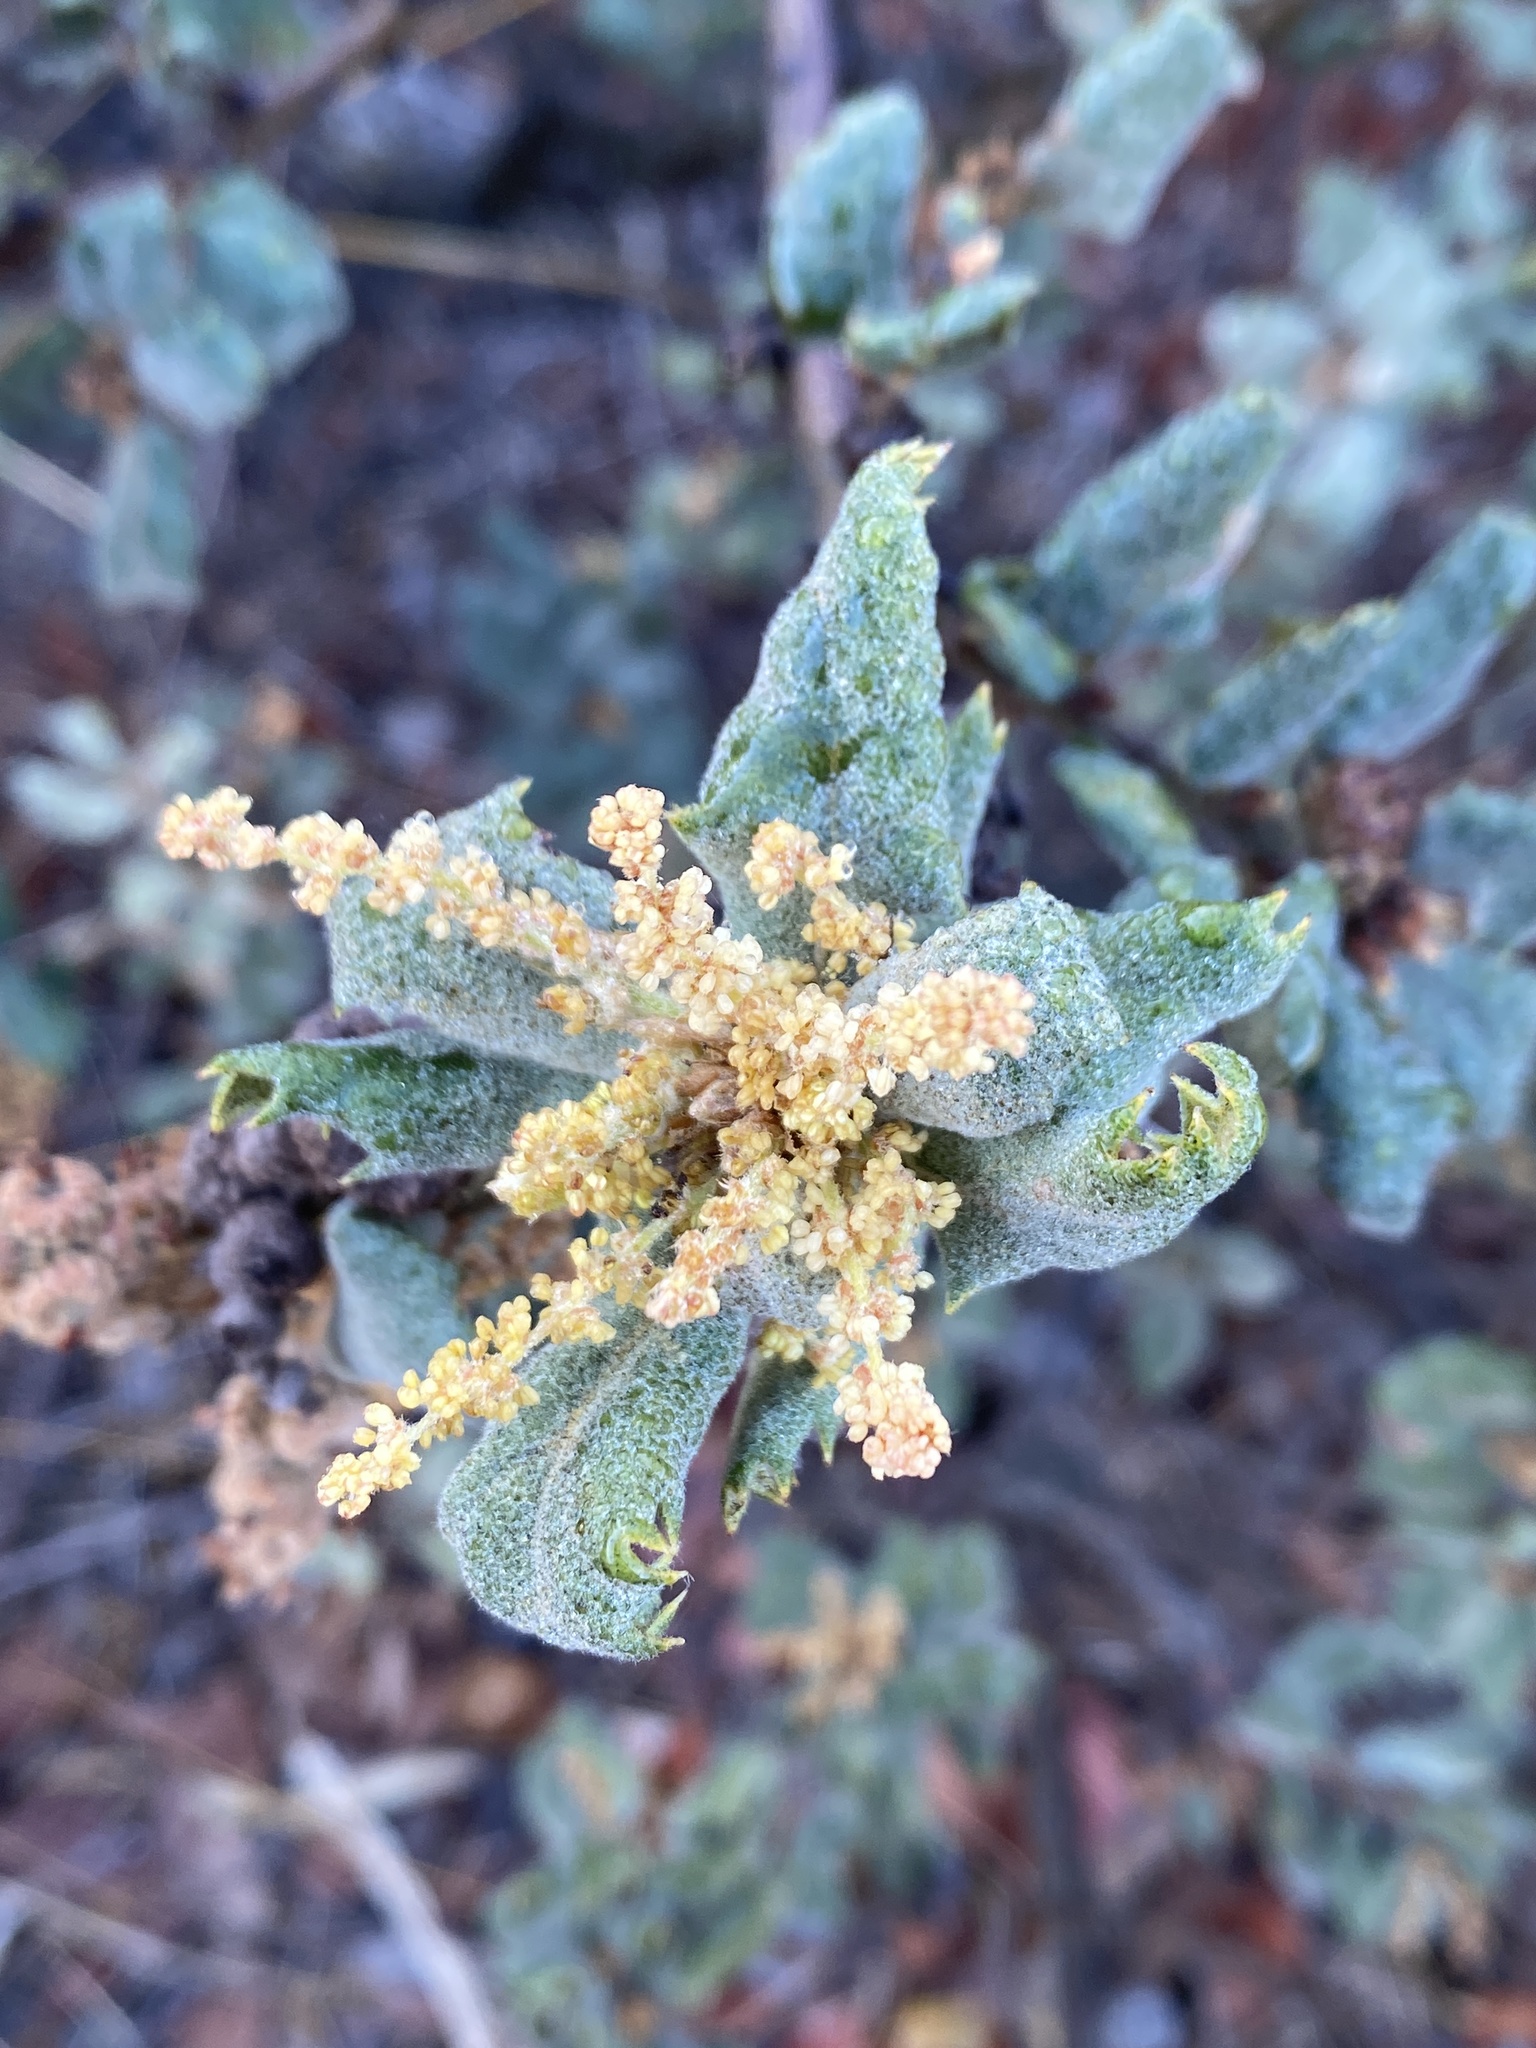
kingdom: Plantae
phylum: Tracheophyta
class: Magnoliopsida
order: Fagales
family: Fagaceae
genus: Quercus
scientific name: Quercus durata
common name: Leather oak
